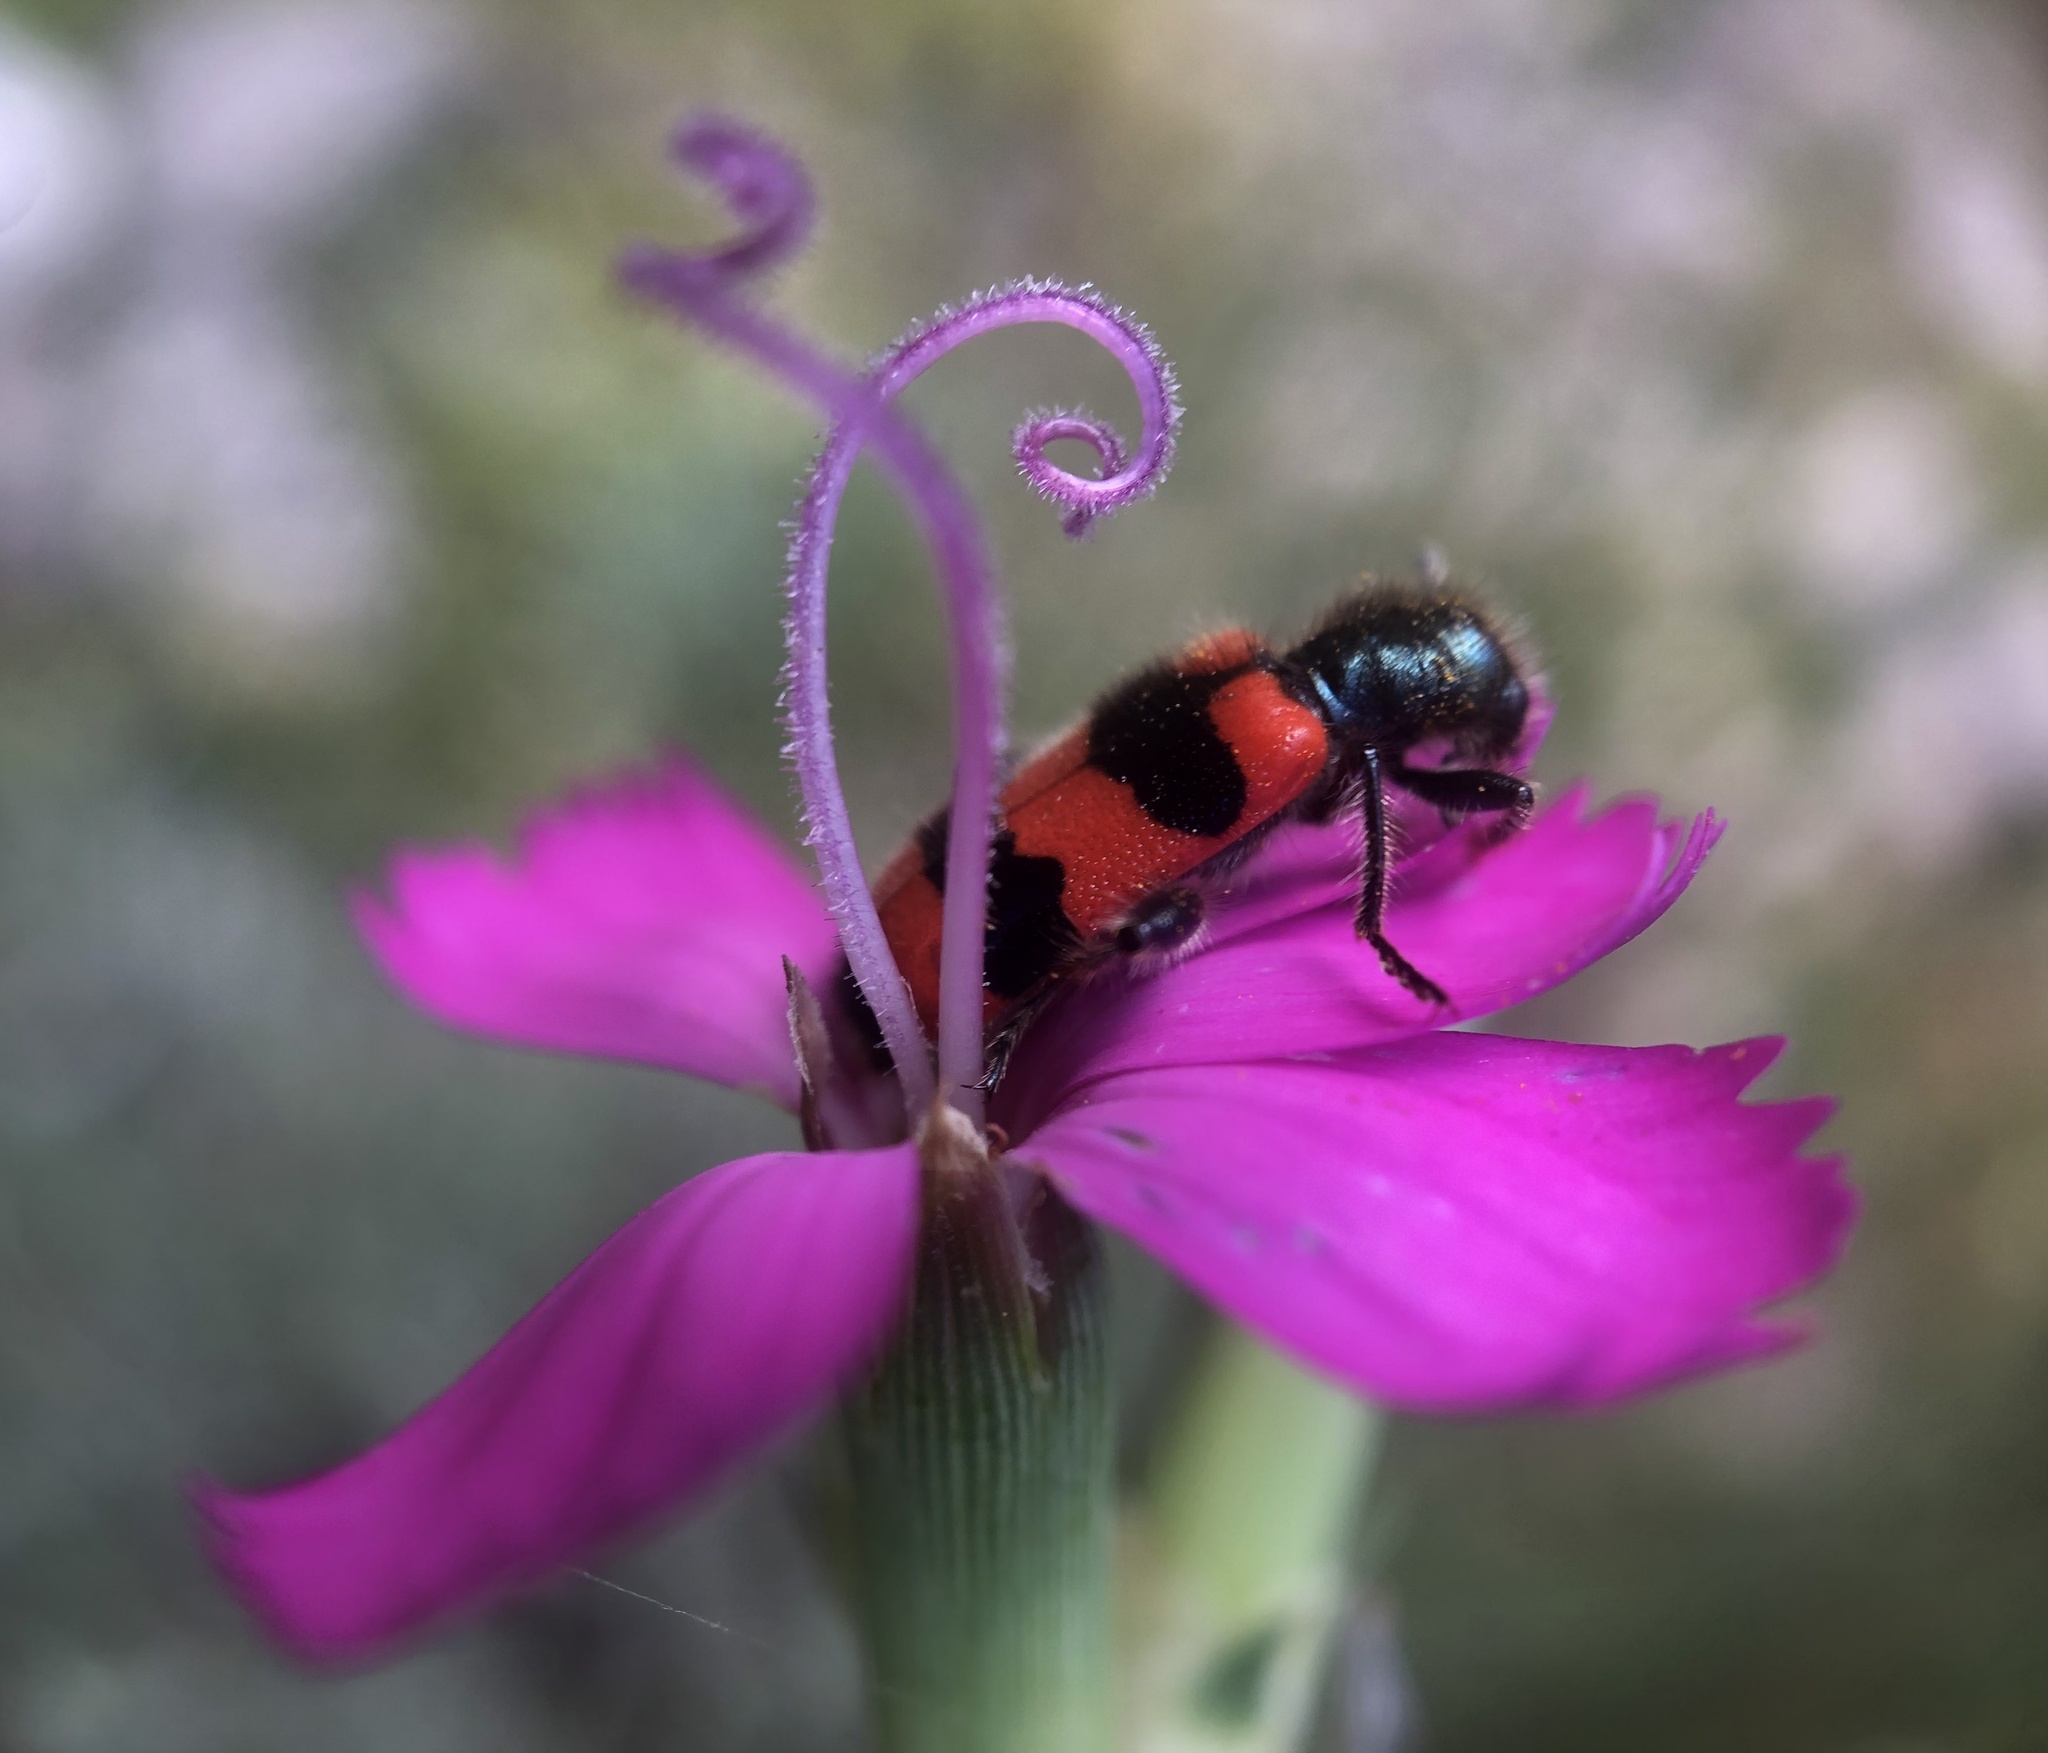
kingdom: Animalia
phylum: Arthropoda
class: Insecta
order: Coleoptera
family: Cleridae
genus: Trichodes
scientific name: Trichodes apiarius
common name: Bee-eating beetle
